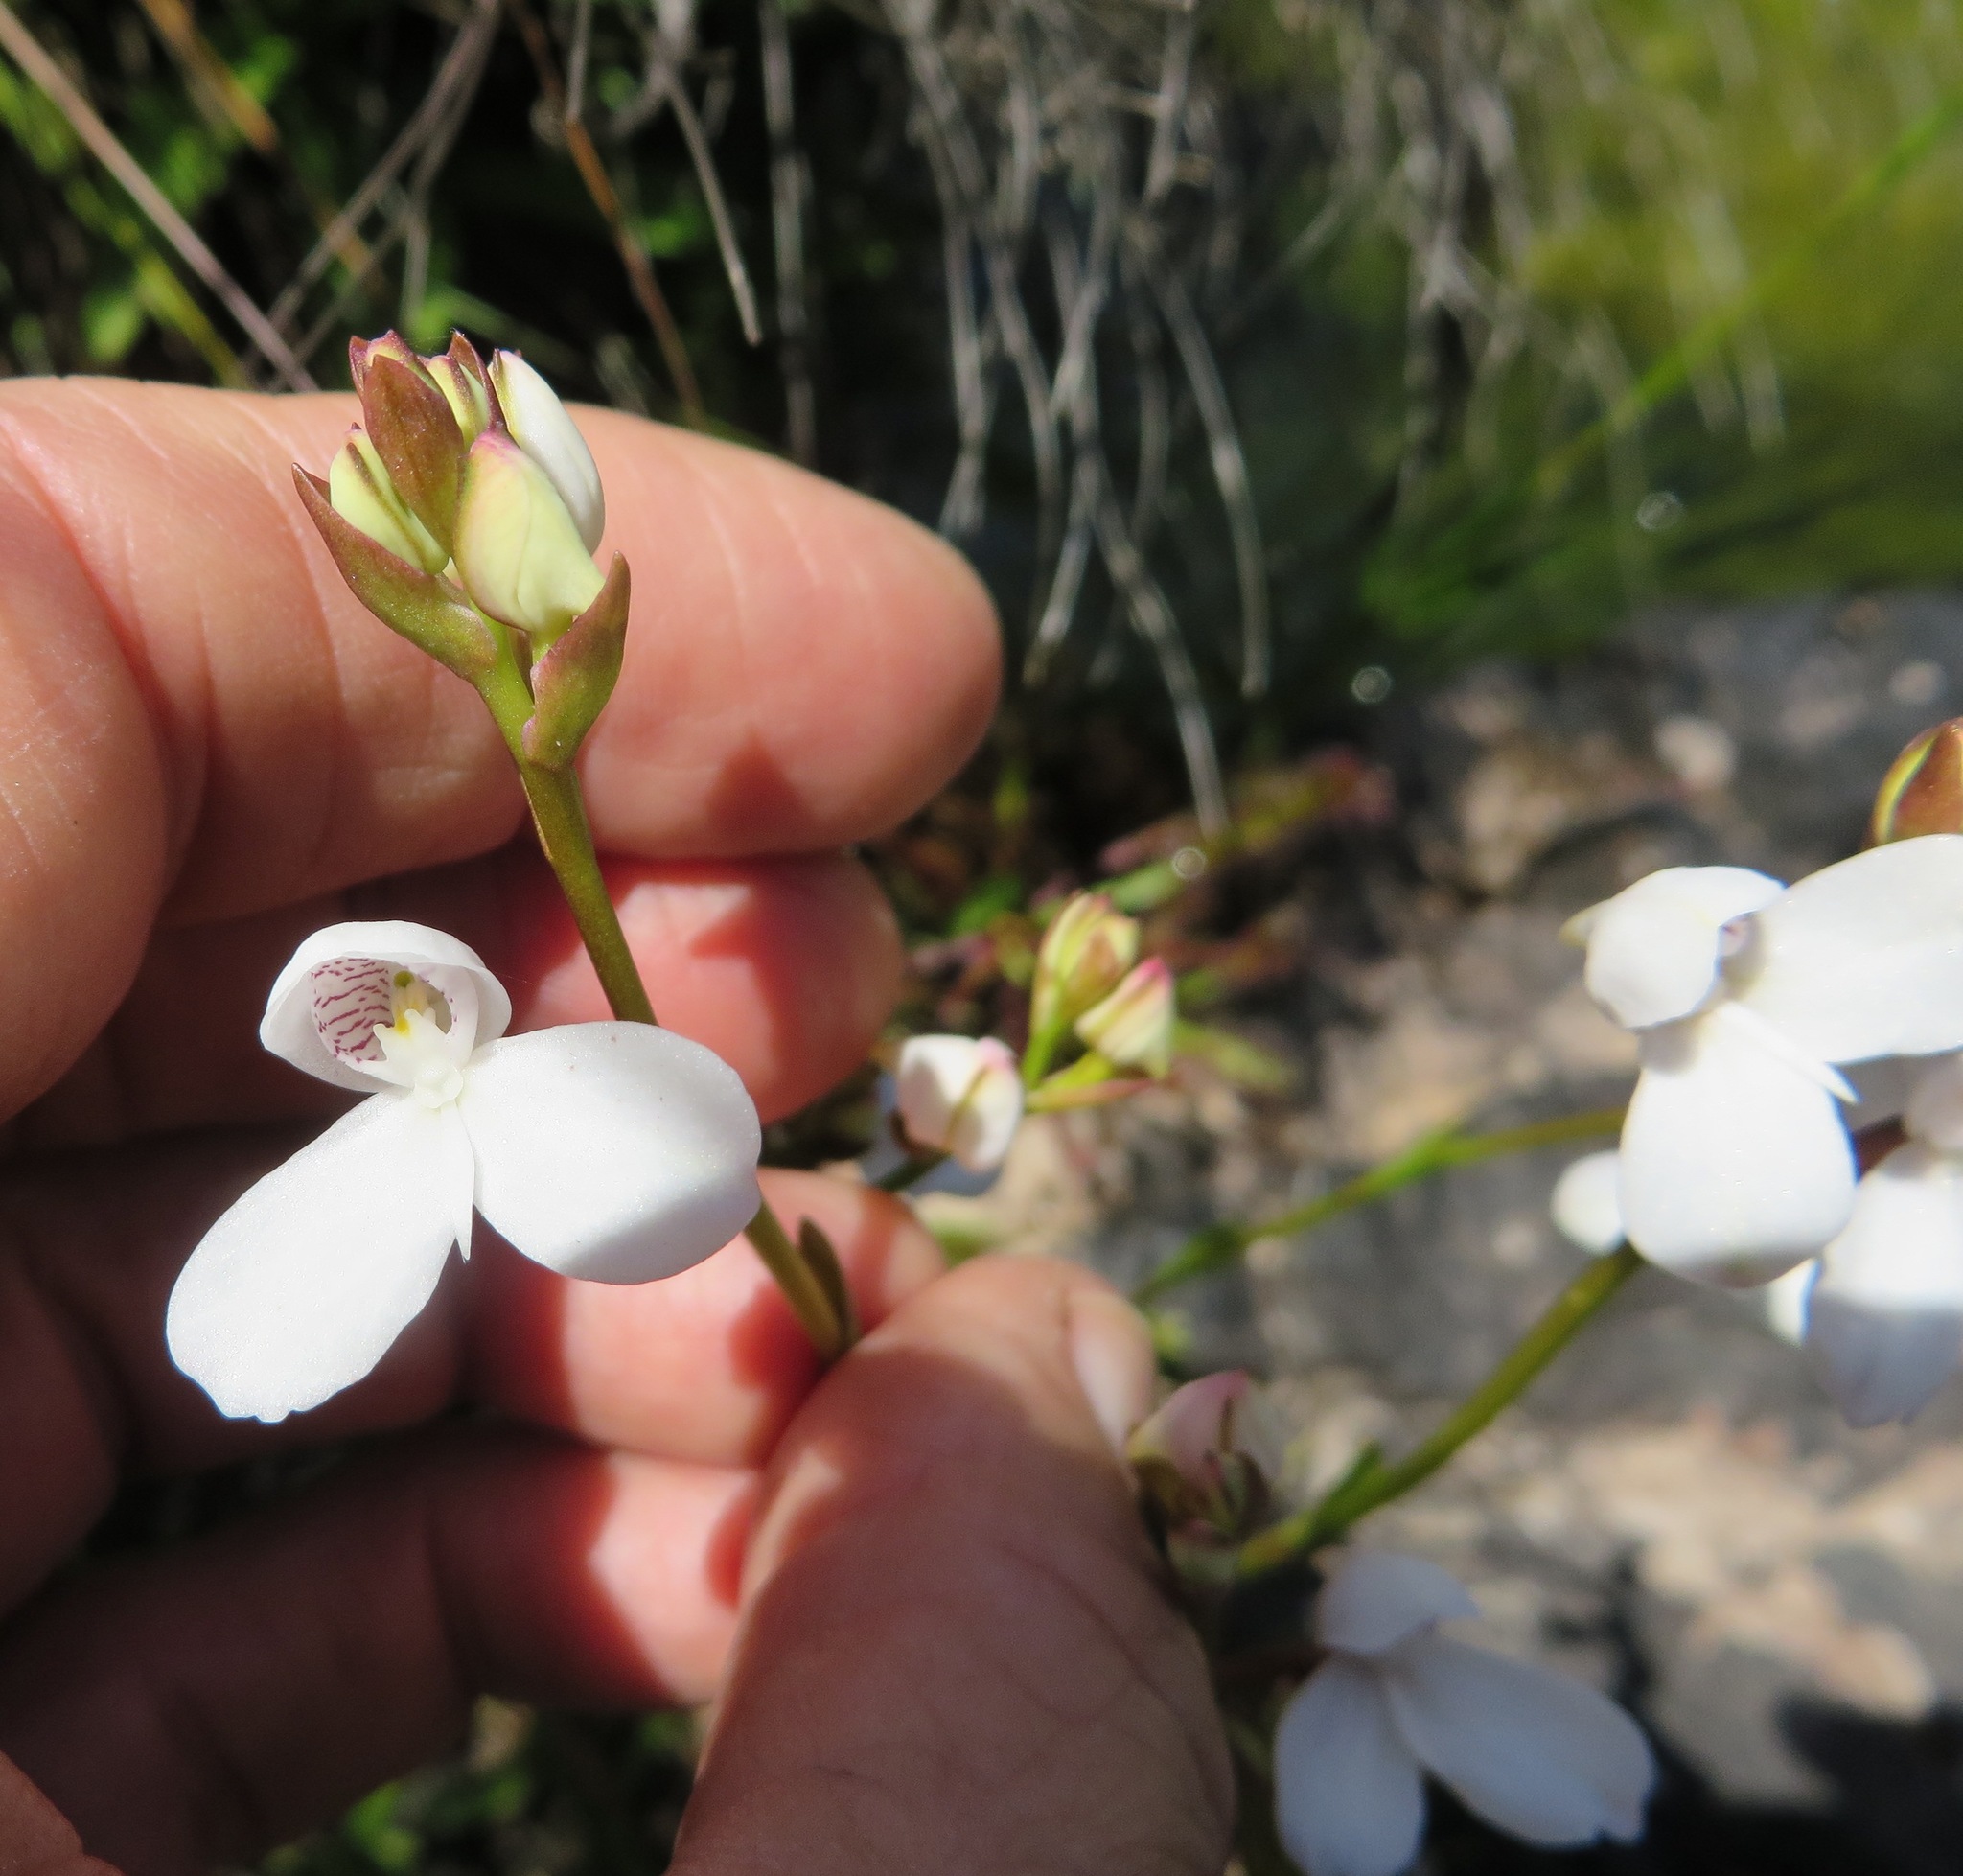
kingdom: Plantae
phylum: Tracheophyta
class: Liliopsida
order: Asparagales
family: Orchidaceae
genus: Disa
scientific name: Disa caulescens
